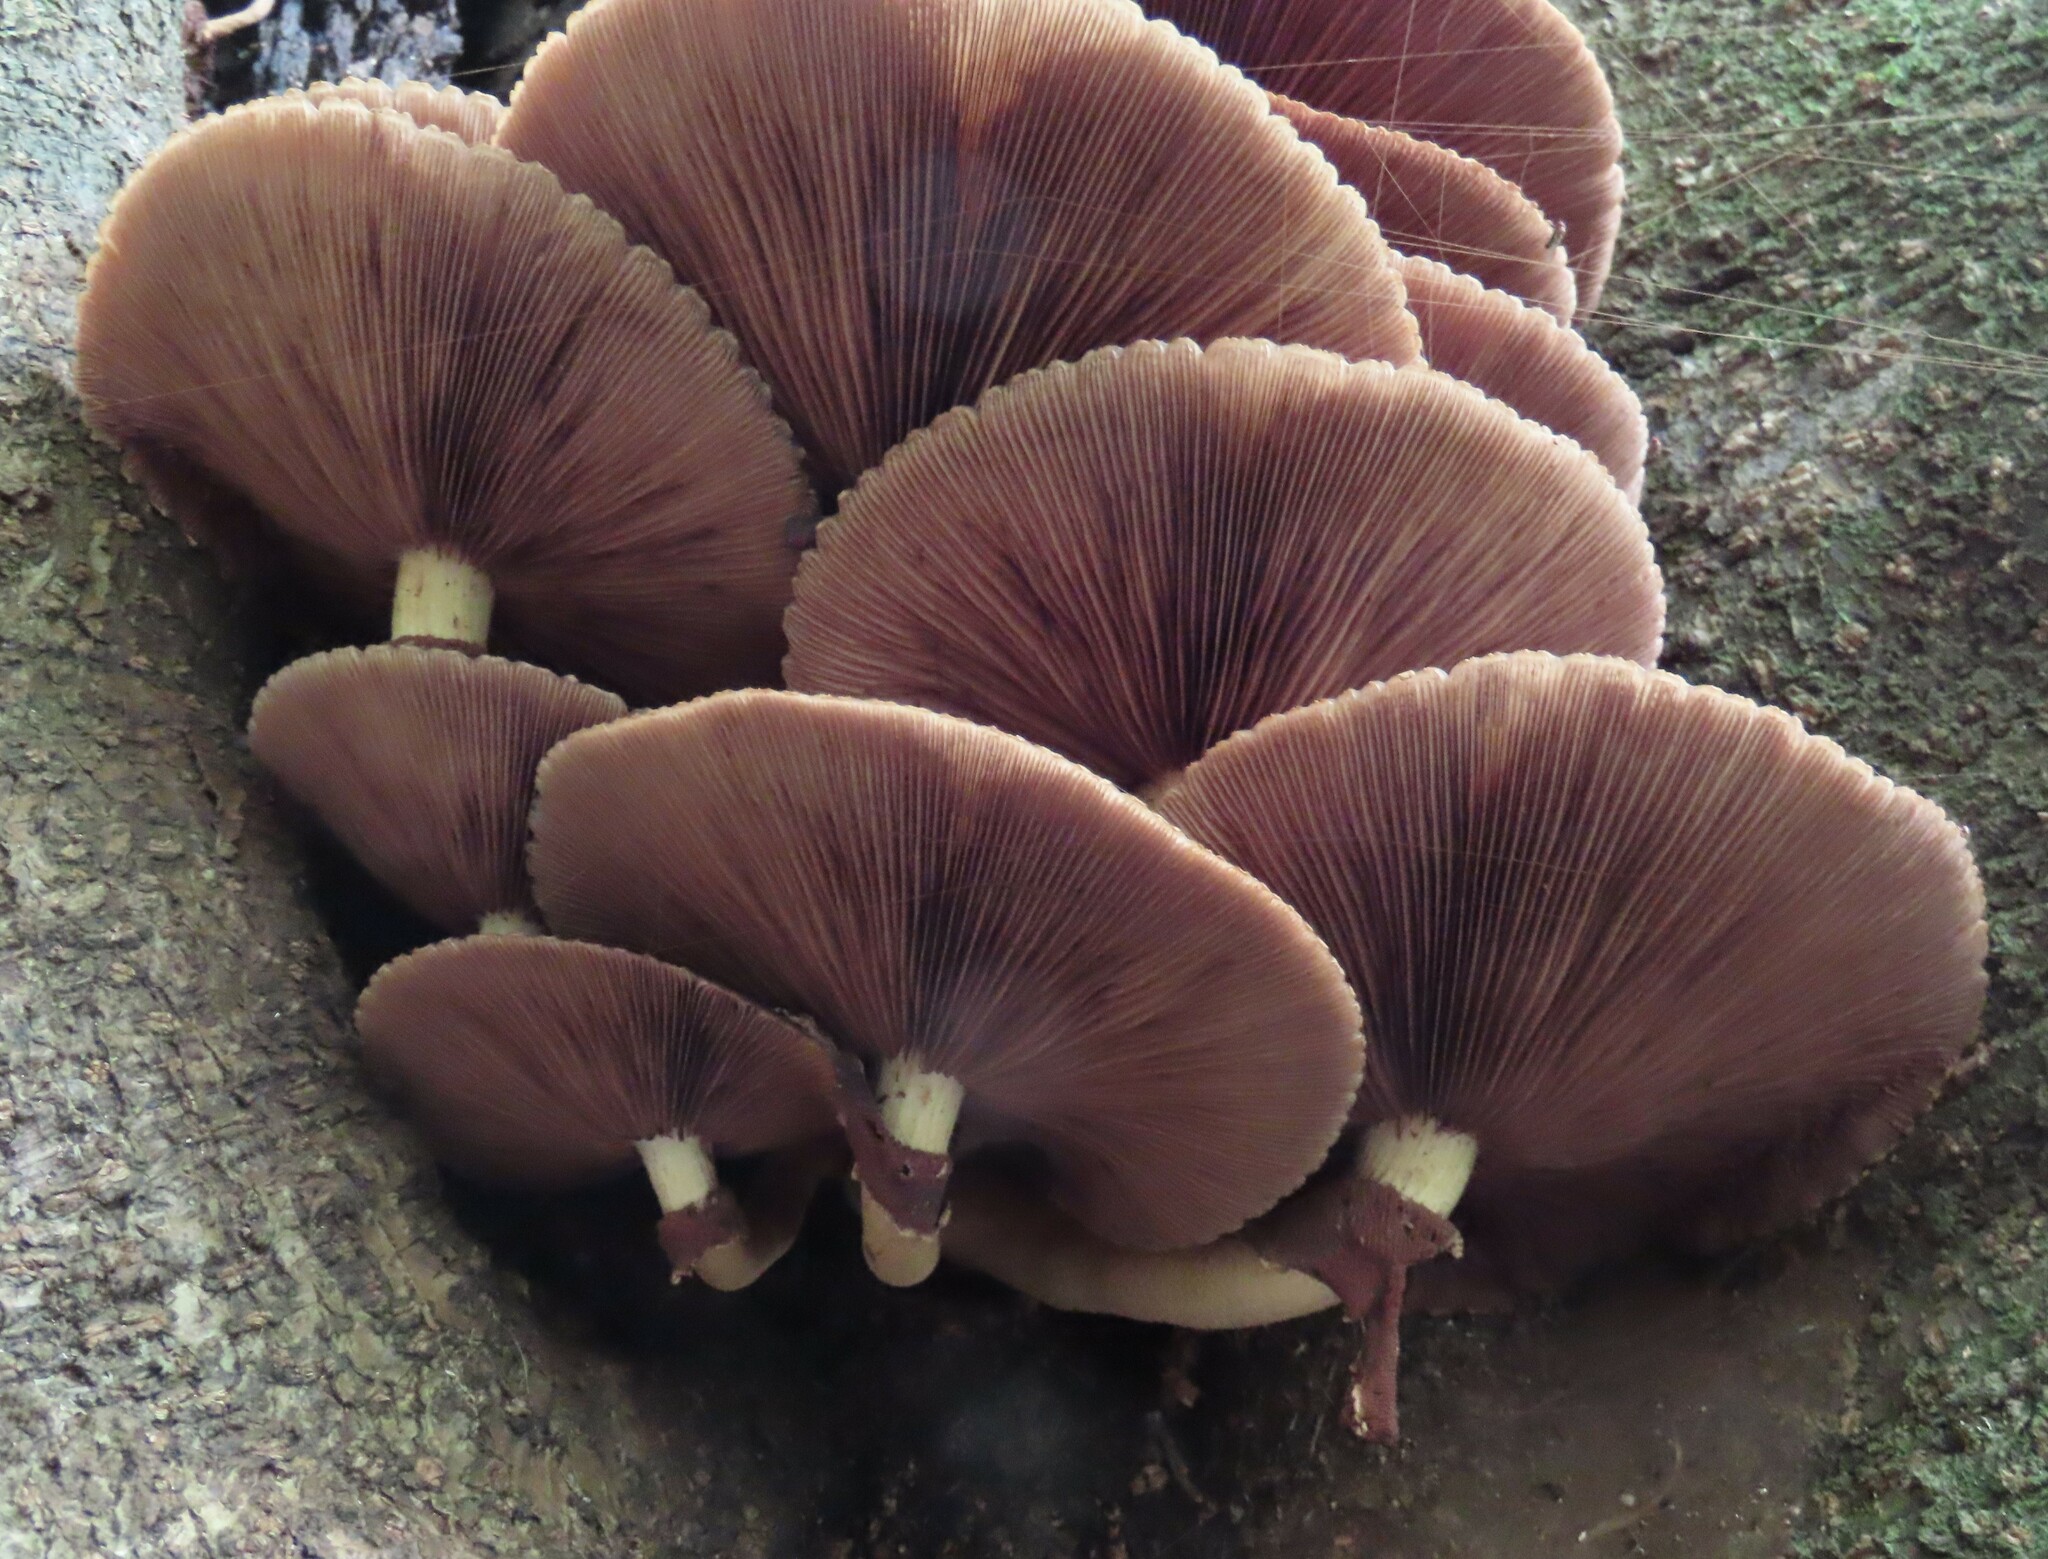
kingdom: Fungi
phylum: Basidiomycota
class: Agaricomycetes
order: Agaricales
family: Tubariaceae
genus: Cyclocybe
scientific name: Cyclocybe parasitica
